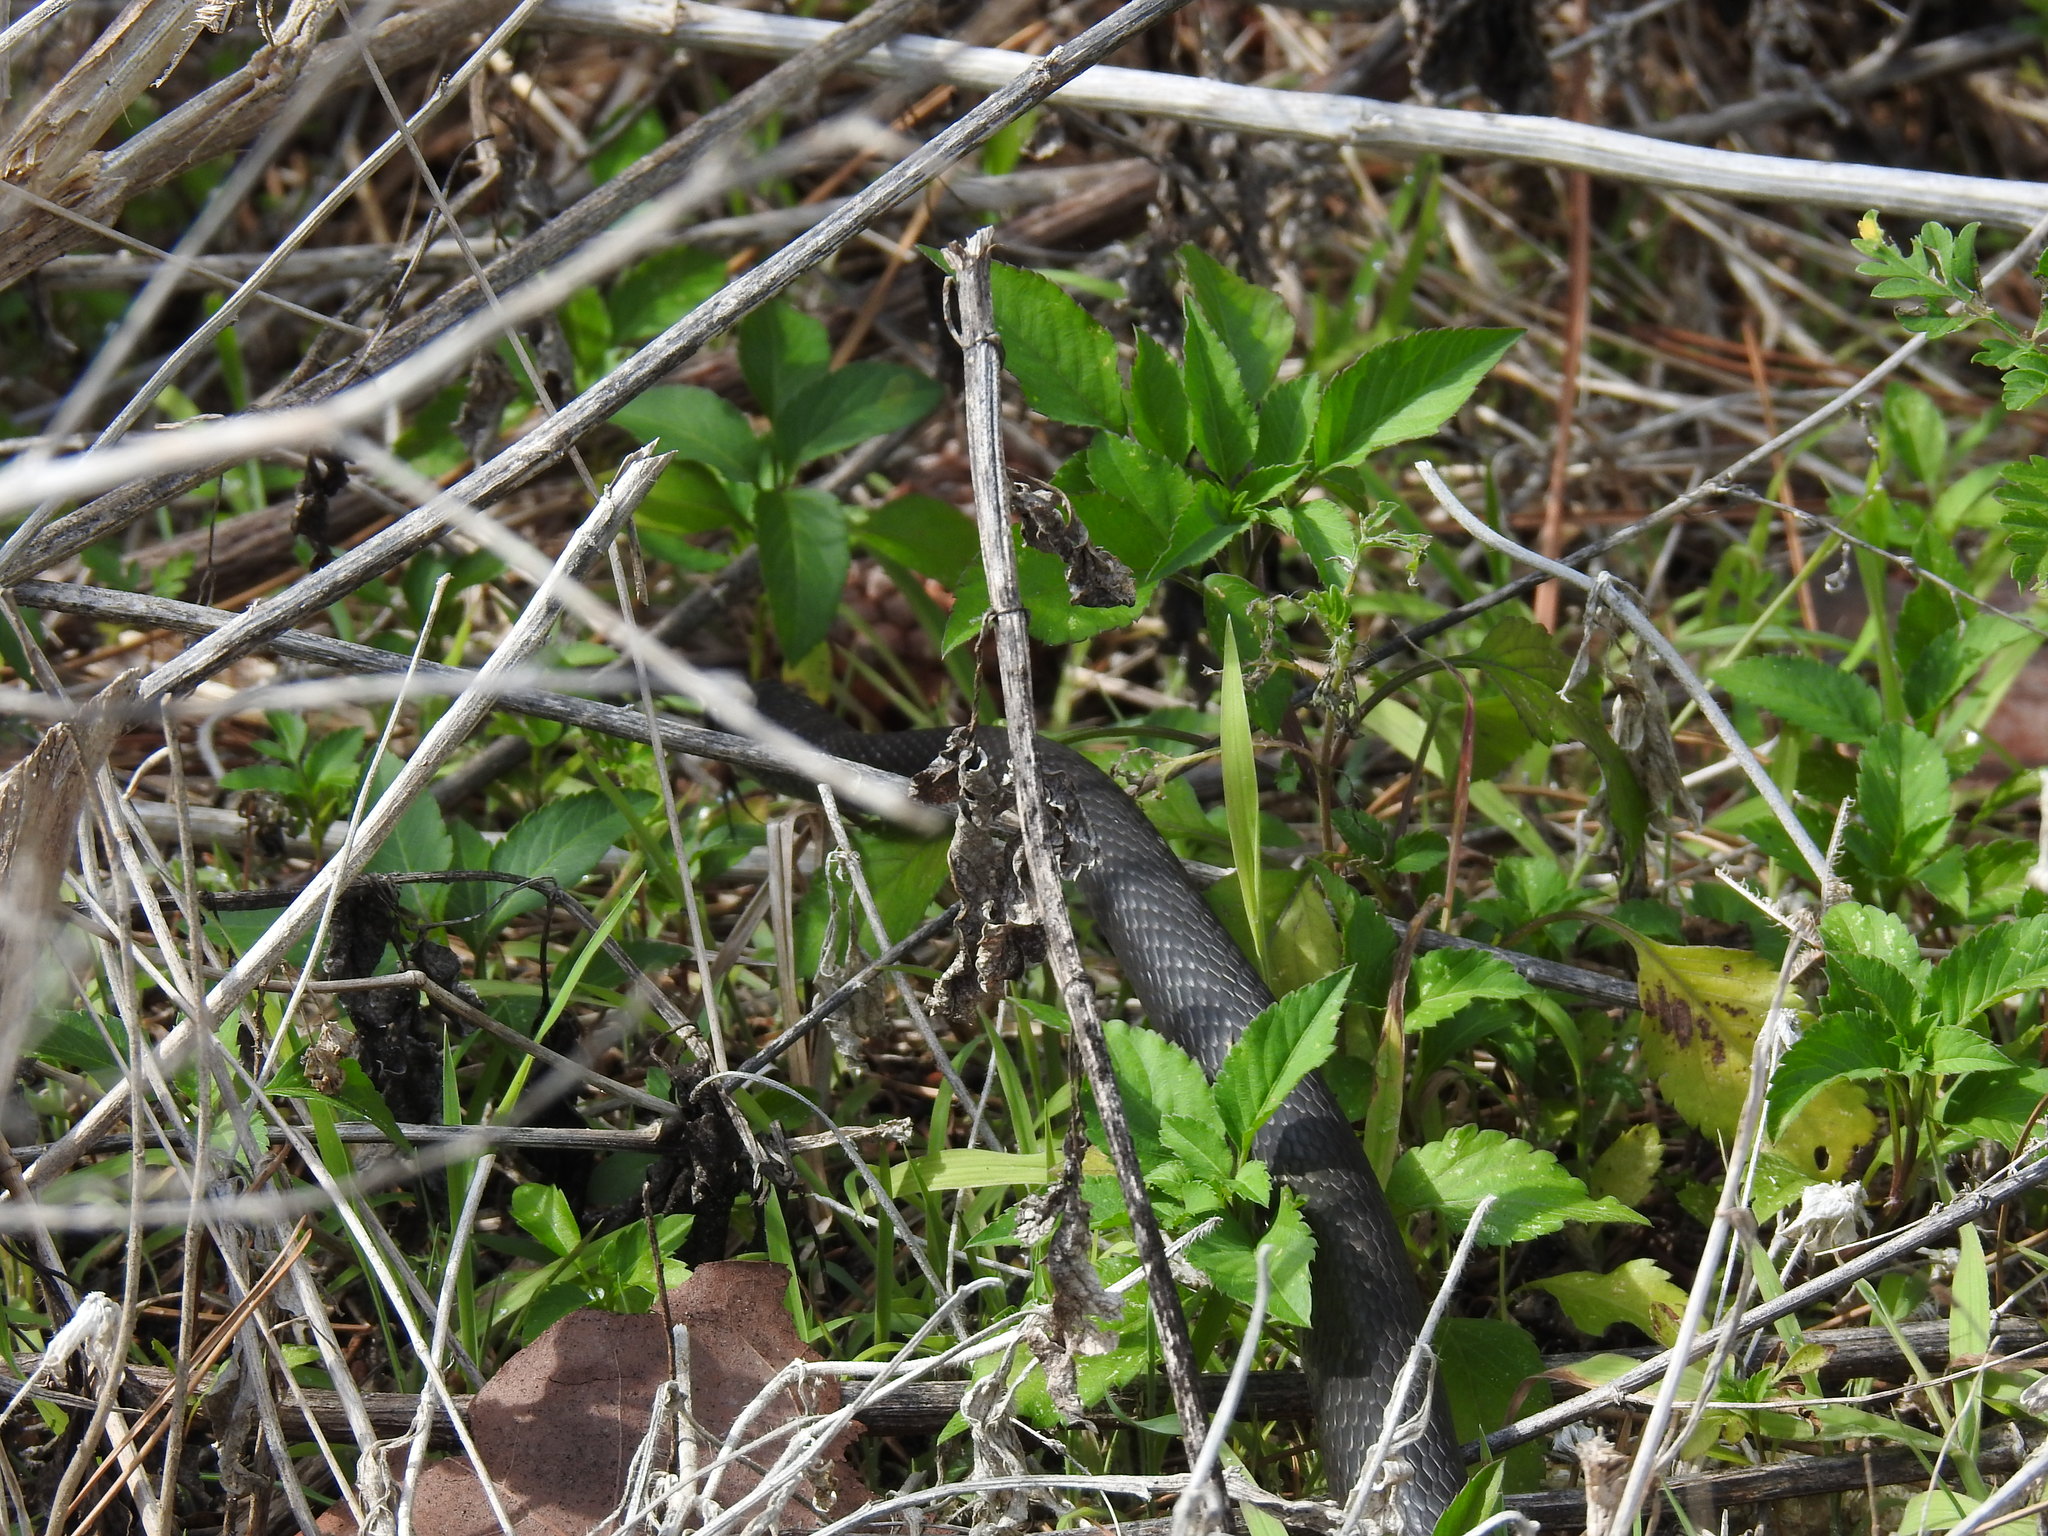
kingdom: Animalia
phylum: Chordata
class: Squamata
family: Colubridae
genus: Coluber
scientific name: Coluber constrictor
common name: Eastern racer
